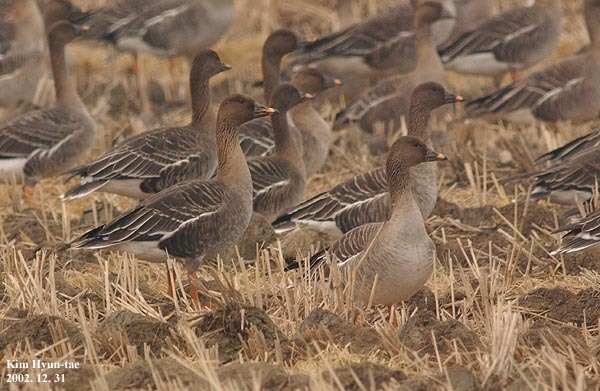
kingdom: Animalia
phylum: Chordata
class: Aves
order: Anseriformes
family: Anatidae
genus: Anser
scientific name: Anser fabalis
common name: Bean goose
